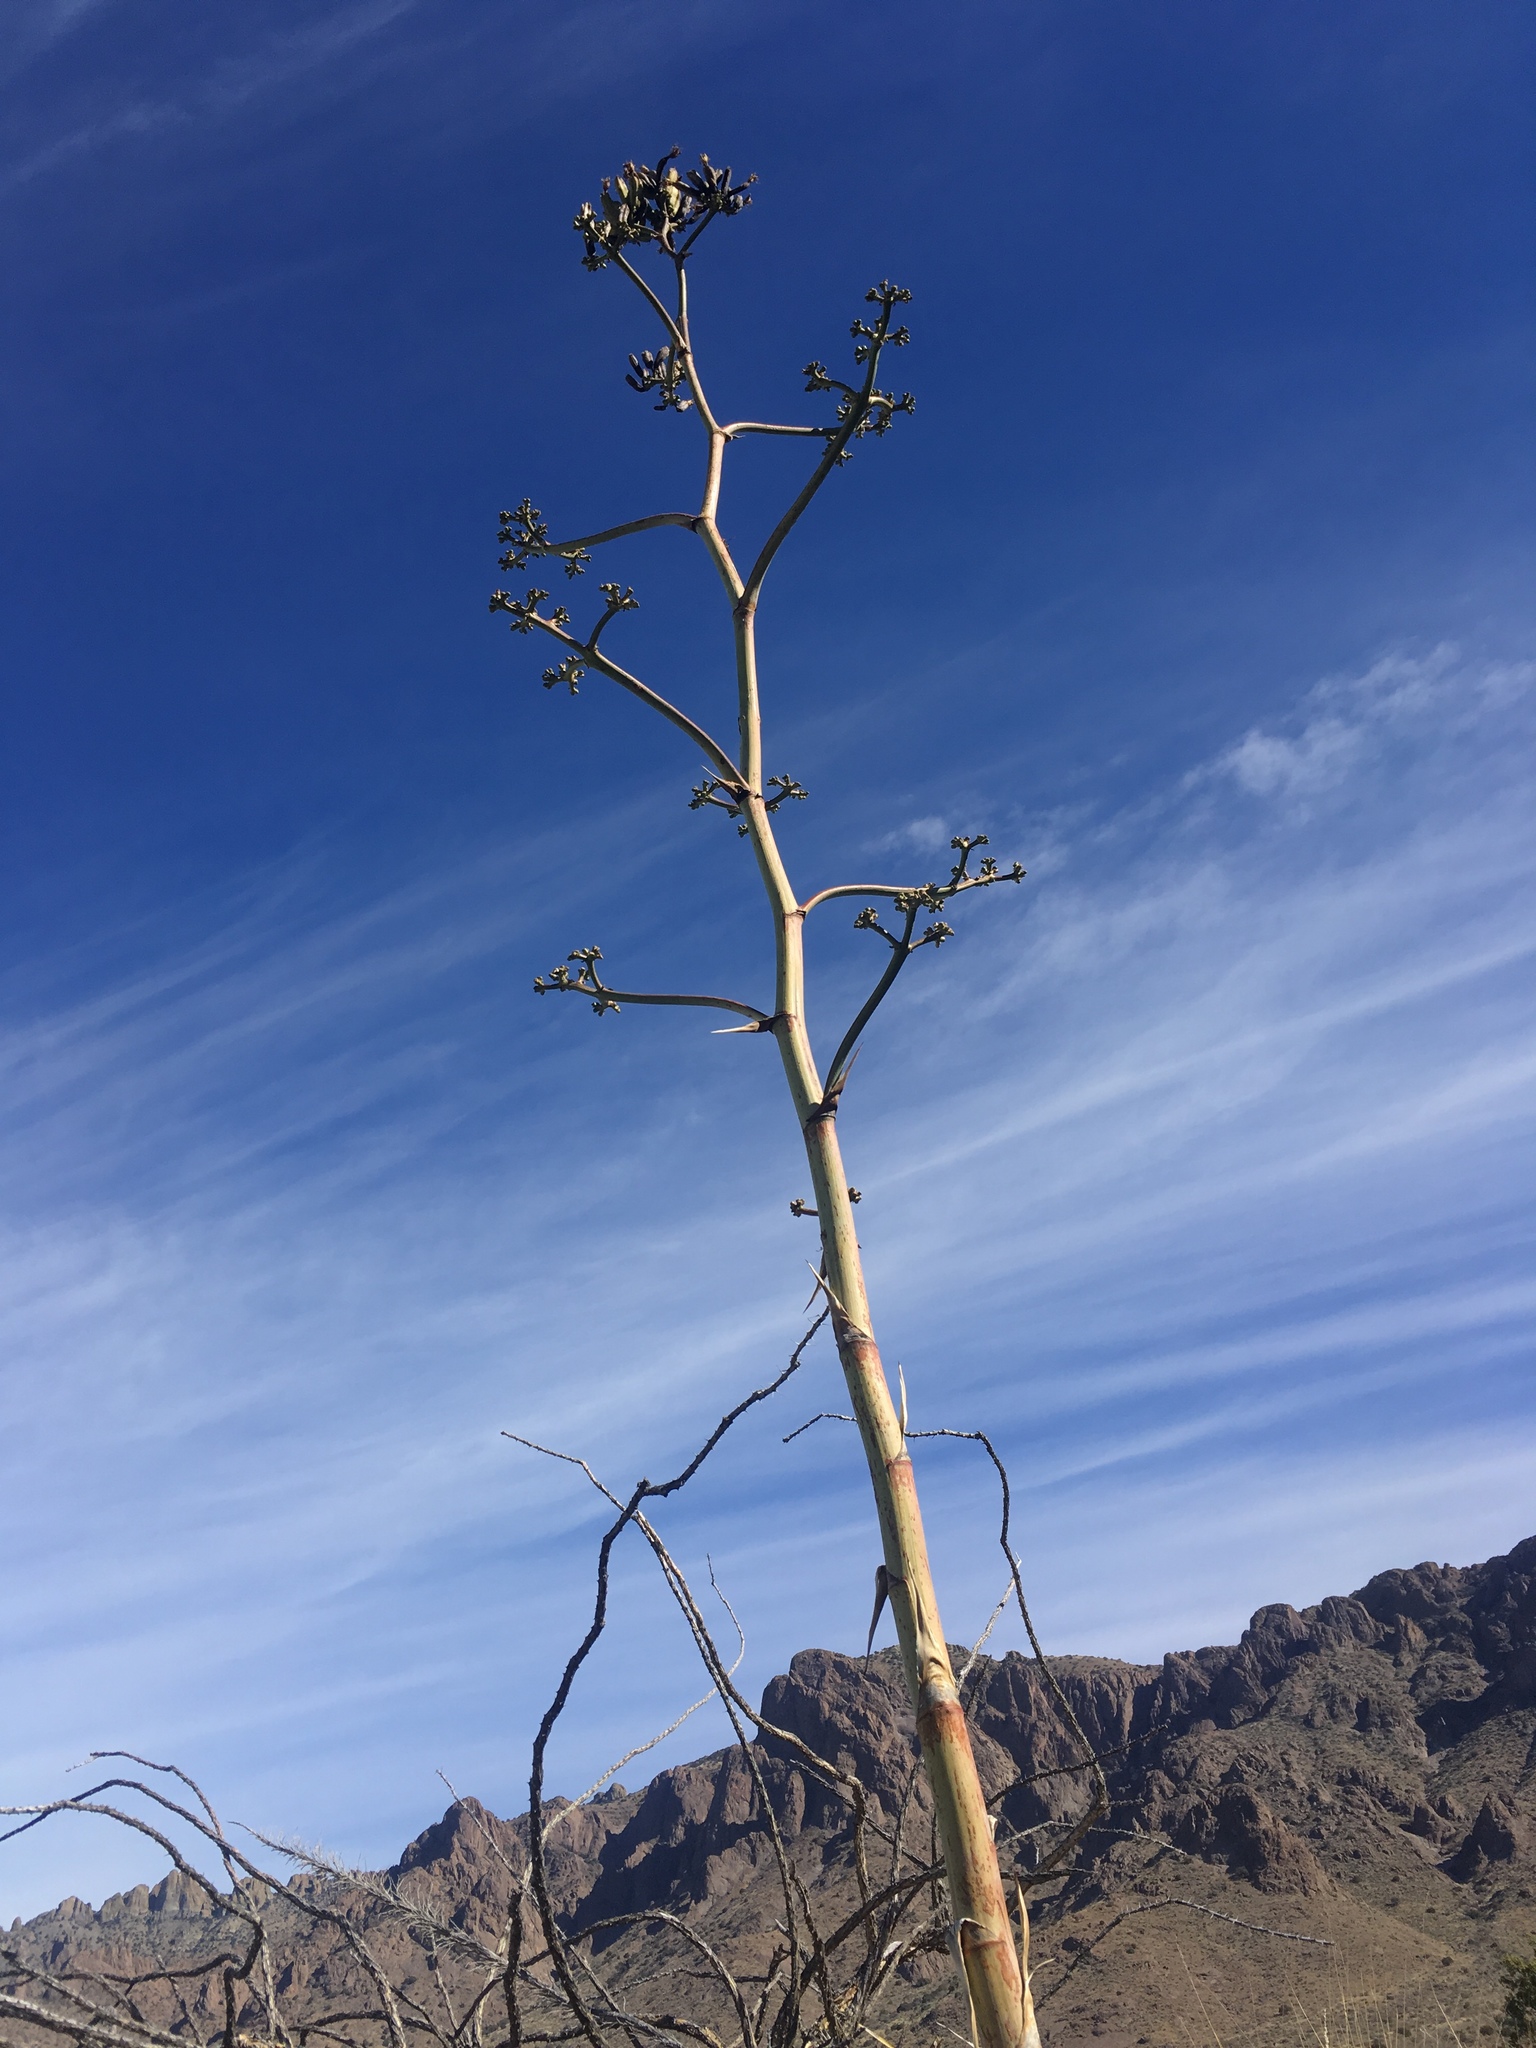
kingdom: Plantae
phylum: Tracheophyta
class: Liliopsida
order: Asparagales
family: Asparagaceae
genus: Agave
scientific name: Agave palmeri
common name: Palmer agave
